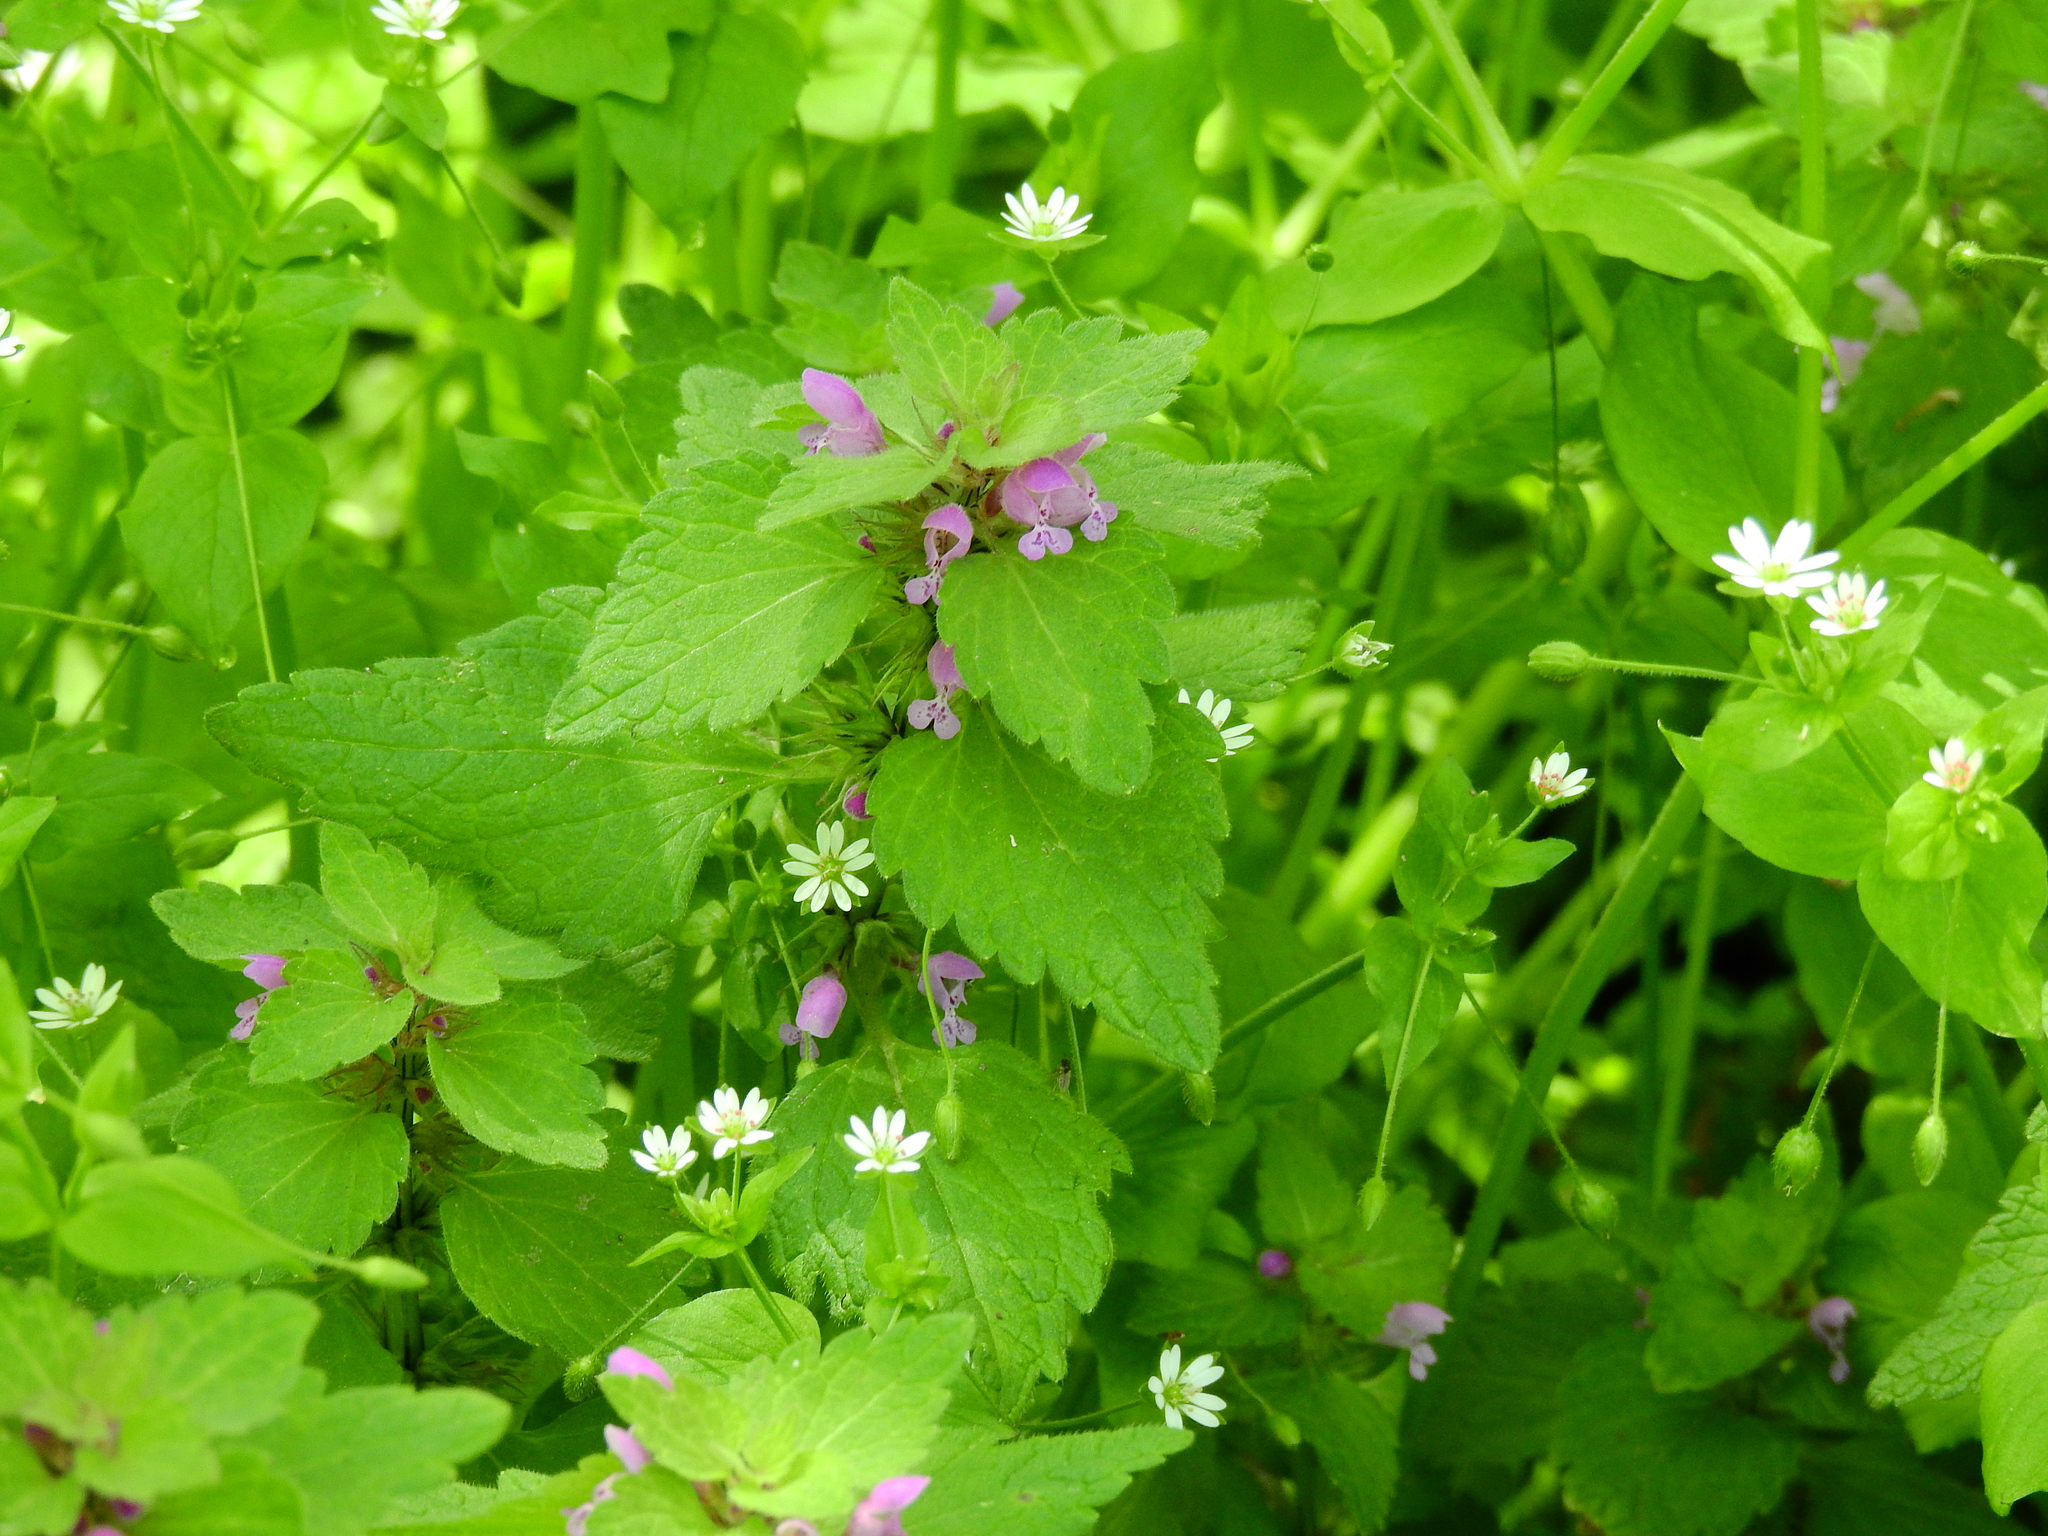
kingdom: Plantae
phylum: Tracheophyta
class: Magnoliopsida
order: Lamiales
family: Lamiaceae
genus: Lamium
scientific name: Lamium purpureum
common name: Red dead-nettle
